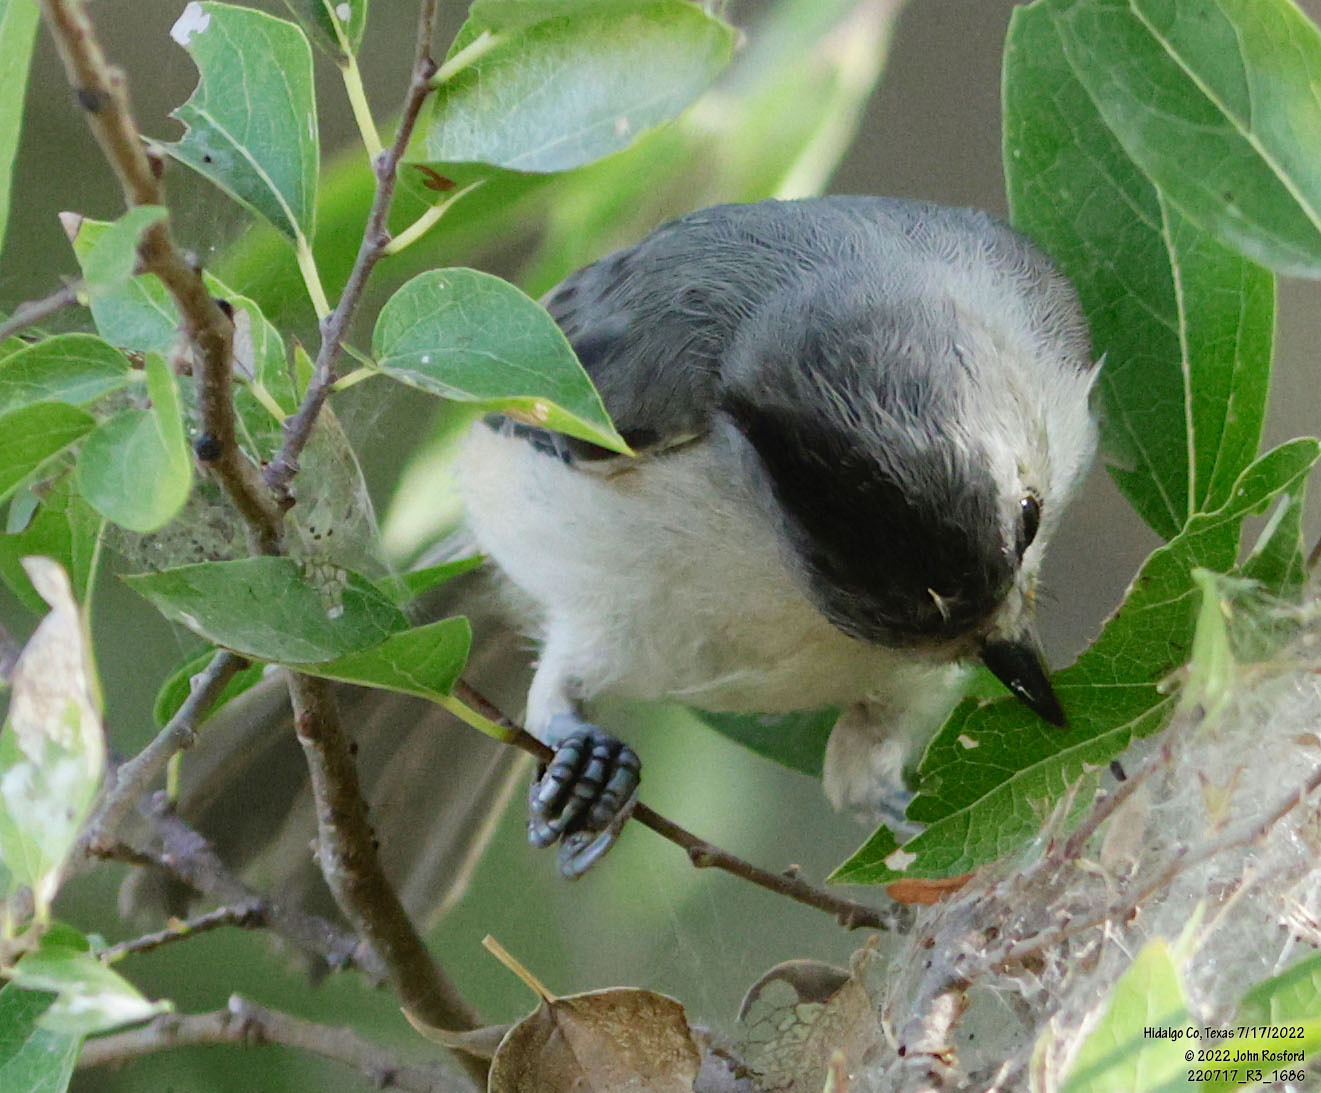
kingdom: Animalia
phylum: Chordata
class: Aves
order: Passeriformes
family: Paridae
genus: Baeolophus
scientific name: Baeolophus atricristatus
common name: Black-crested titmouse
